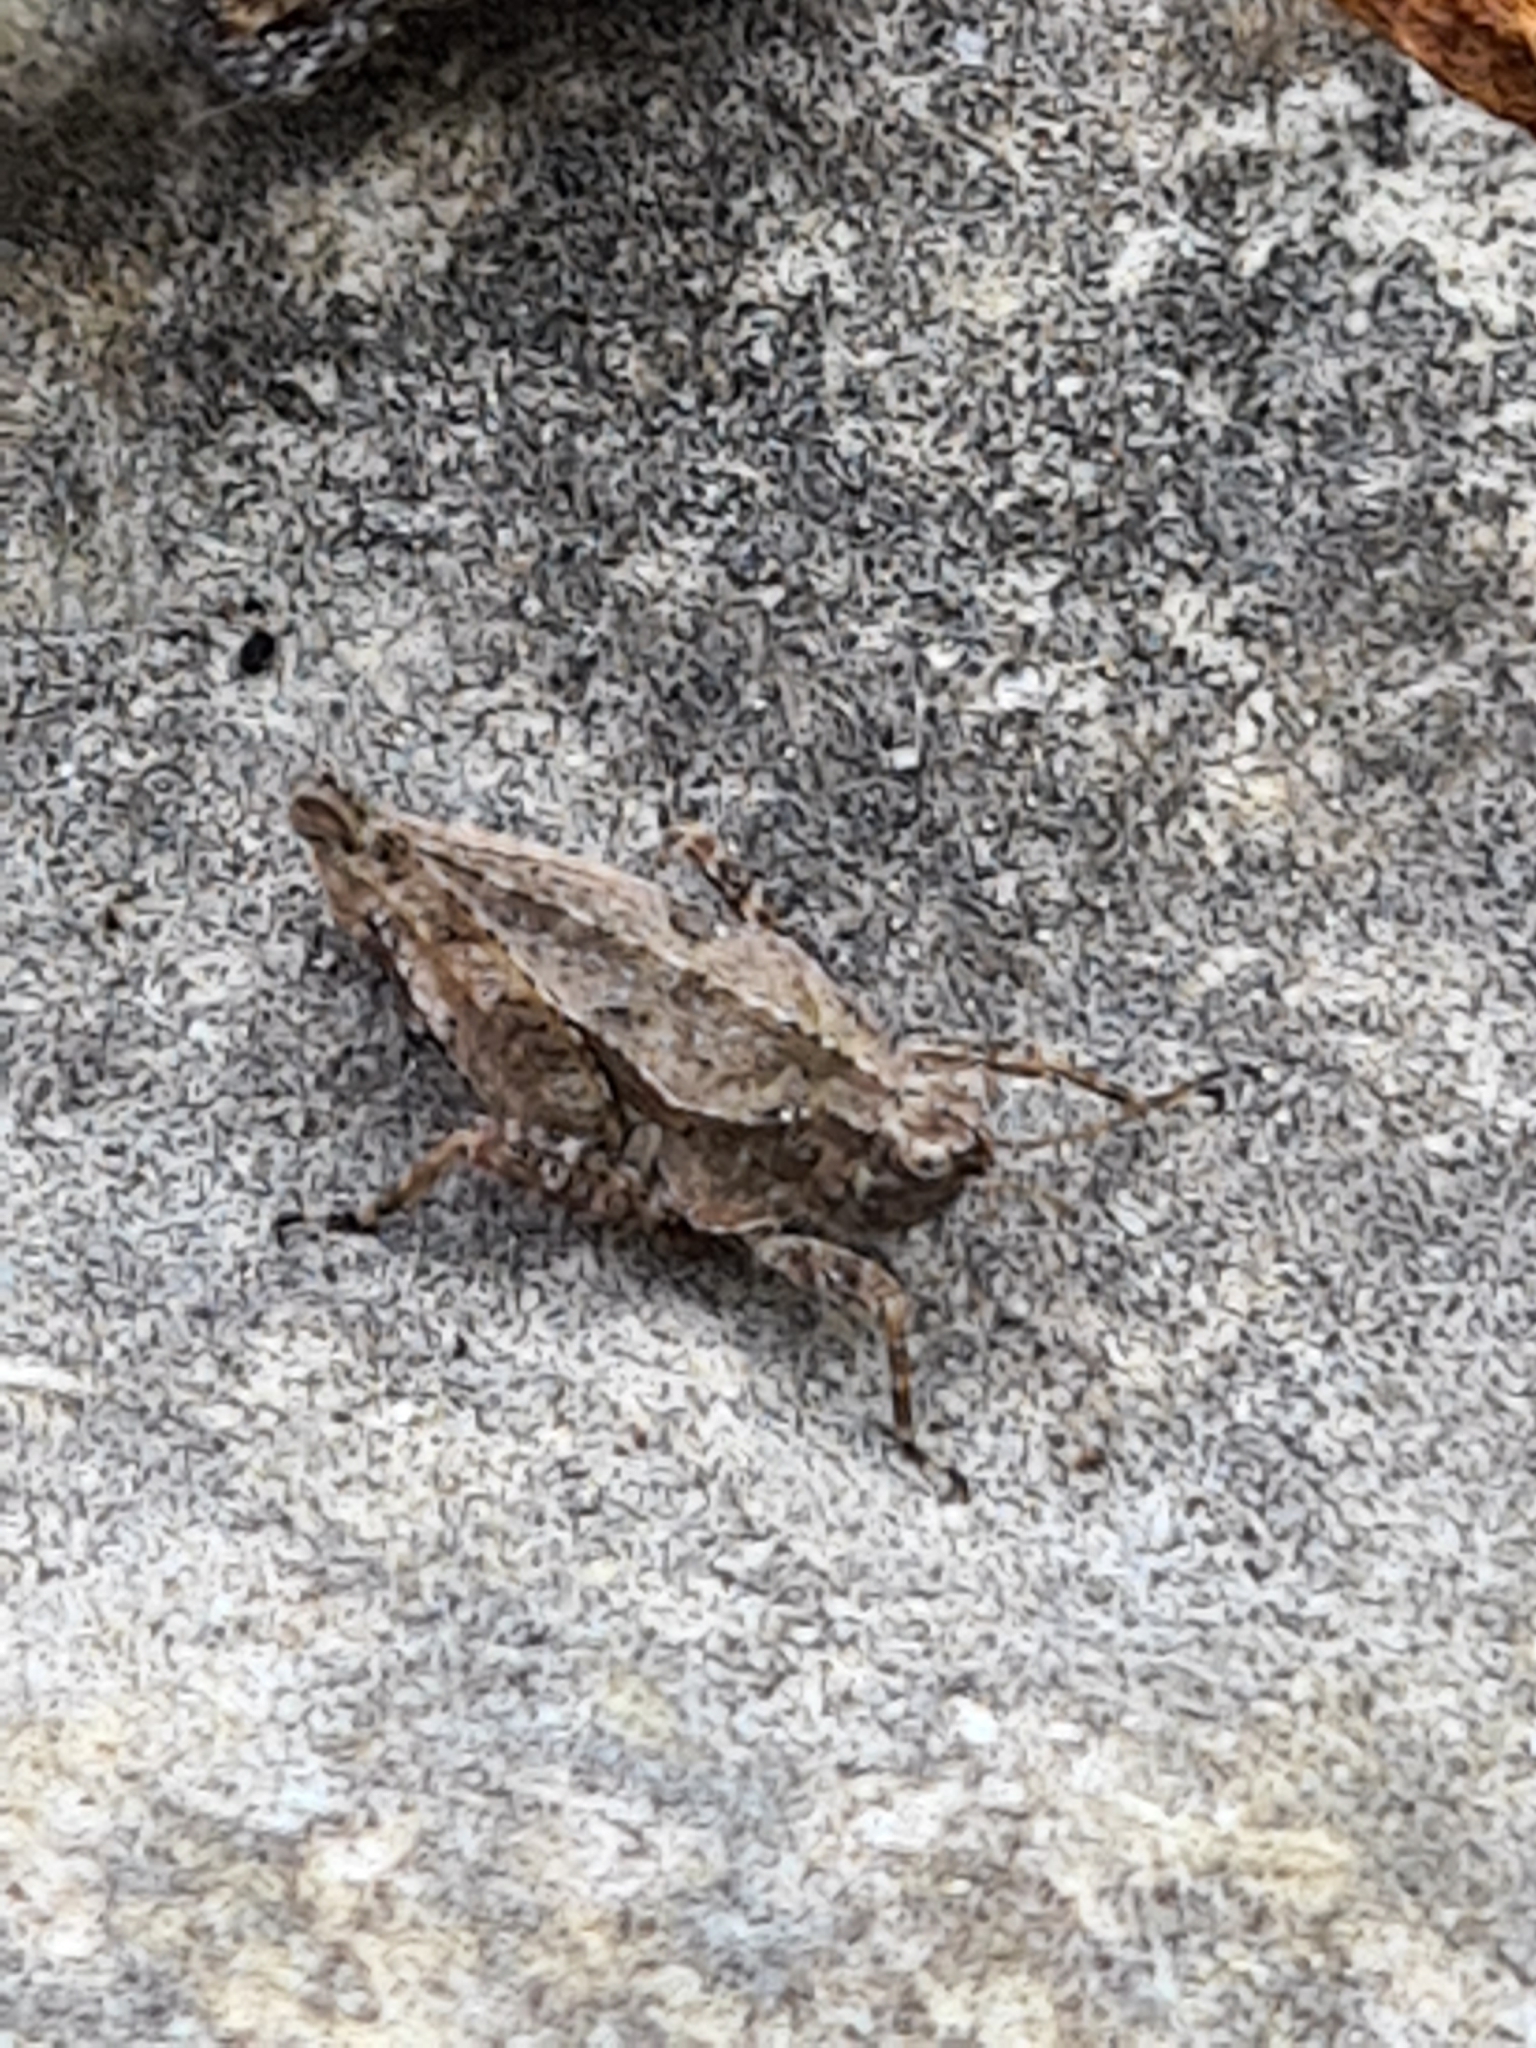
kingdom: Animalia
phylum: Arthropoda
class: Insecta
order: Orthoptera
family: Tetrigidae
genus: Tetrix
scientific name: Tetrix tenuicornis
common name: Long-horned groundhopper
